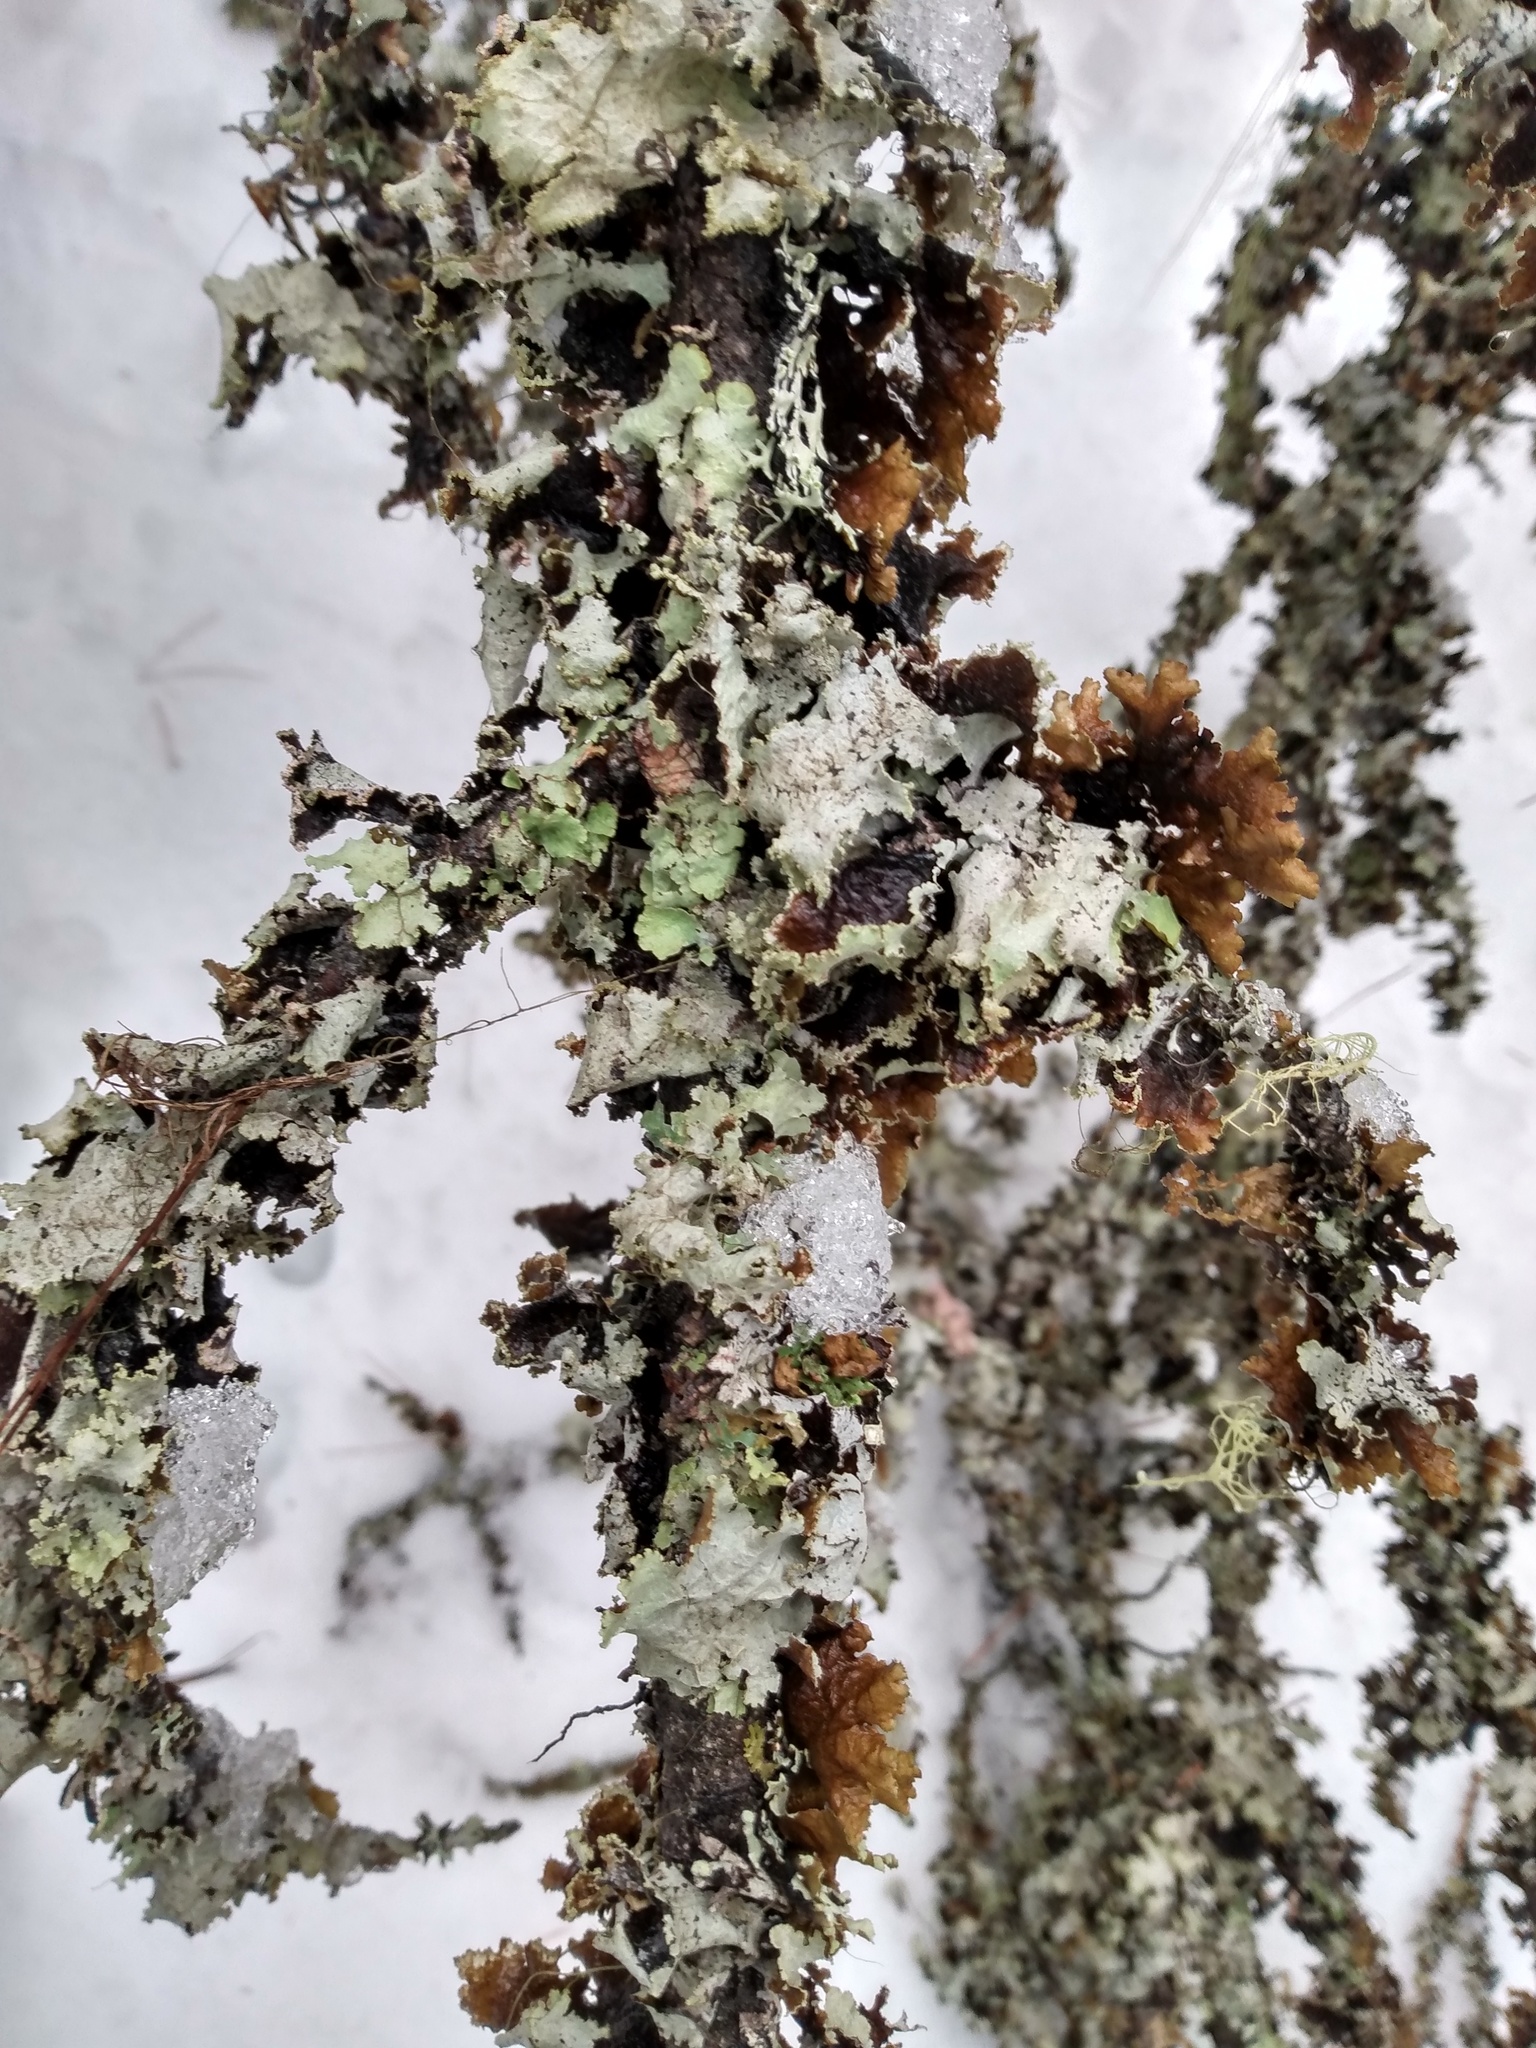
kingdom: Fungi
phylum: Ascomycota
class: Lecanoromycetes
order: Lecanorales
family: Parmeliaceae
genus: Platismatia
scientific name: Platismatia glauca
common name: Varied rag lichen
